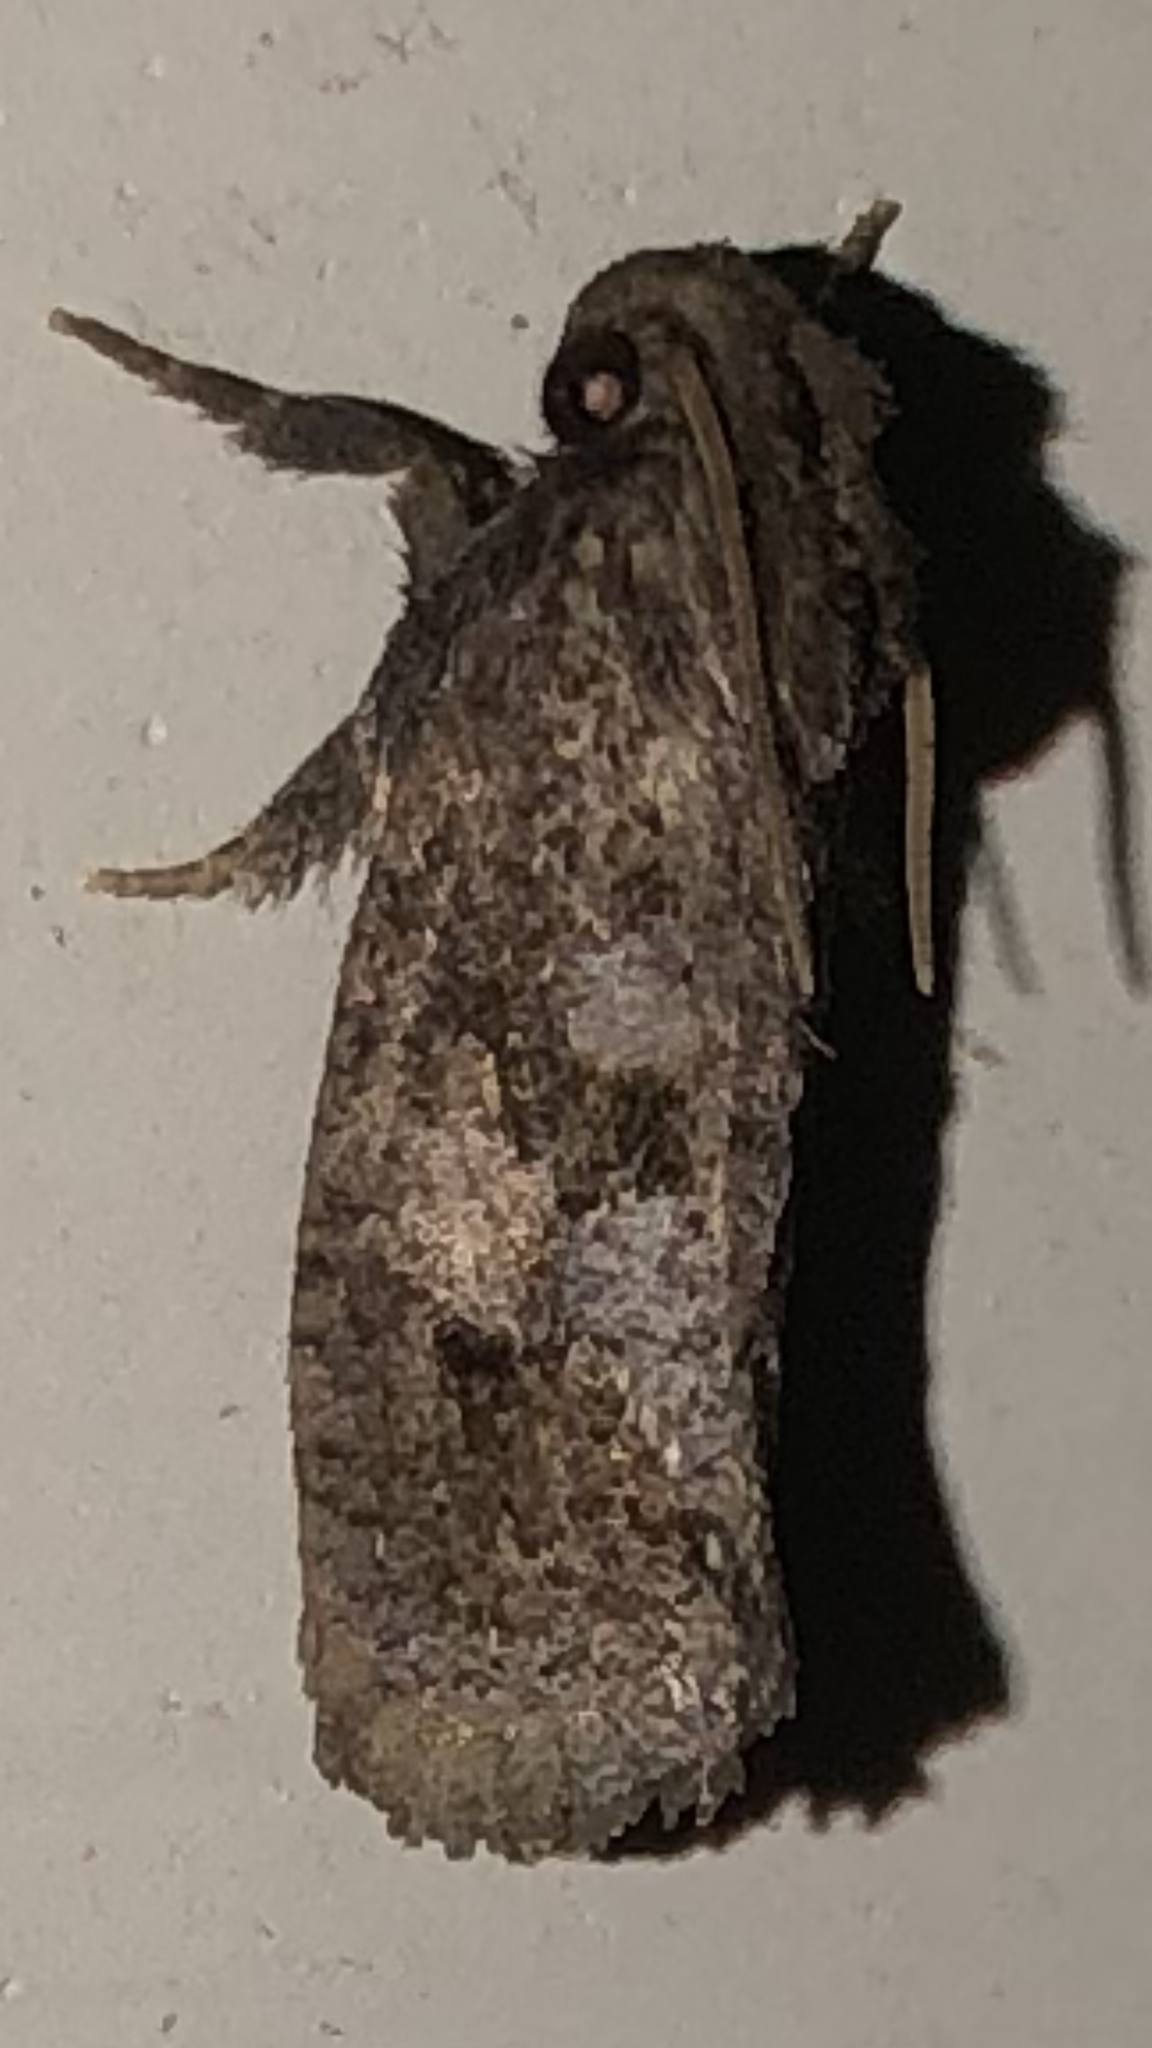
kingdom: Animalia
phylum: Arthropoda
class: Insecta
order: Lepidoptera
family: Tineidae
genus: Acrolophus
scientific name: Acrolophus texanella
